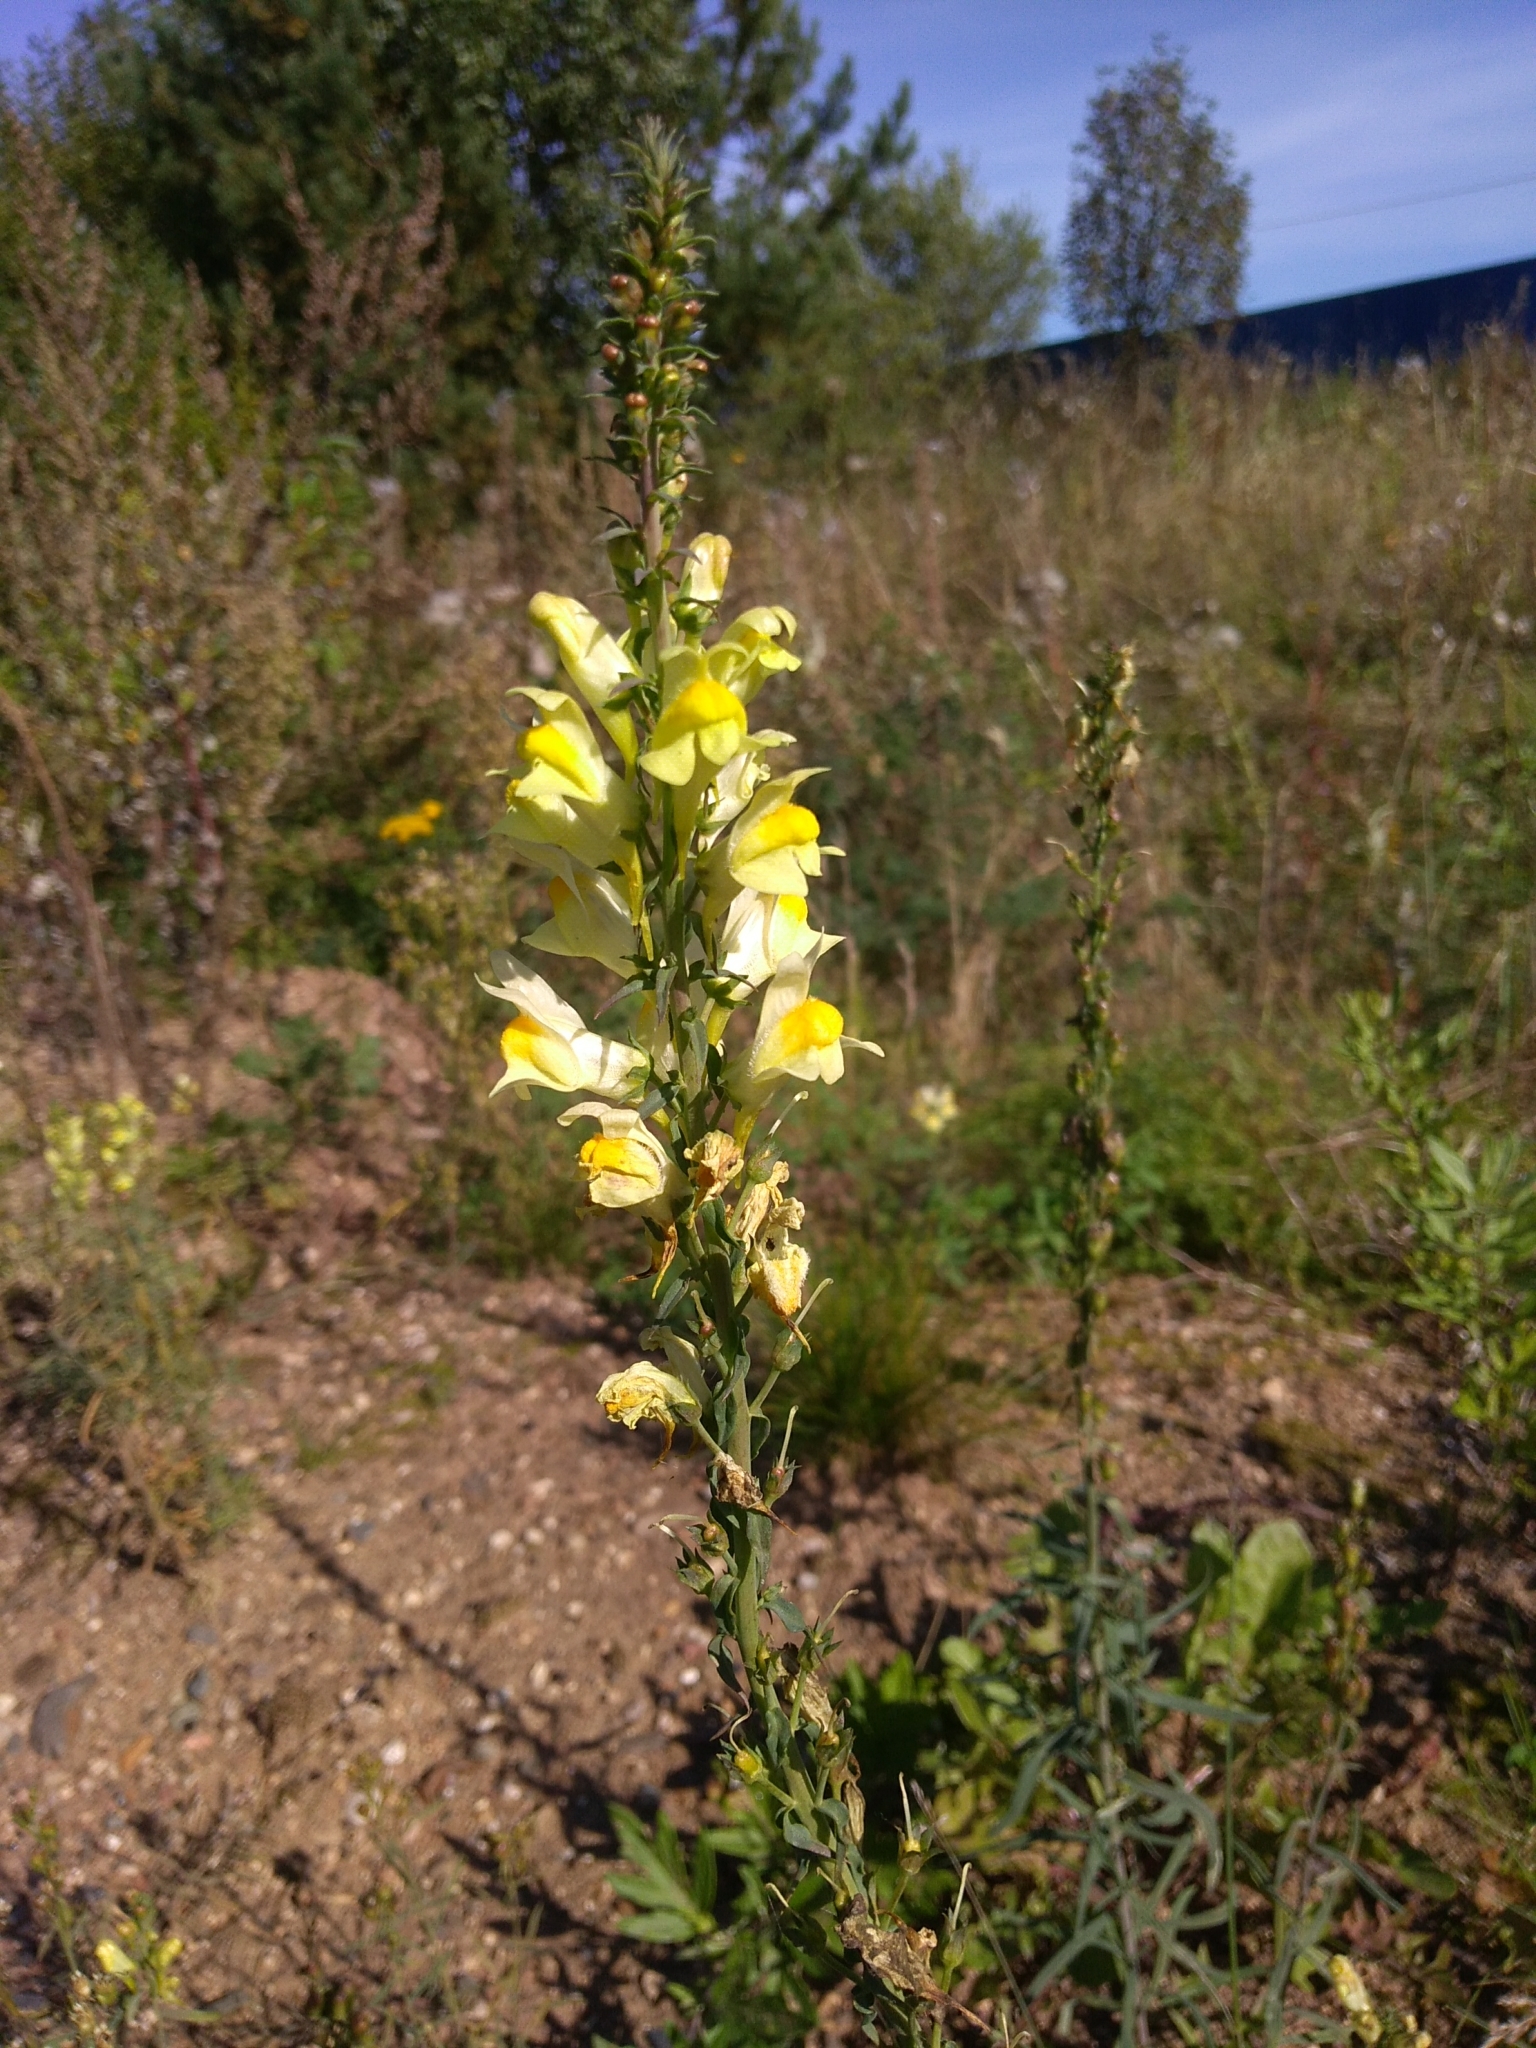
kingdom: Plantae
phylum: Tracheophyta
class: Magnoliopsida
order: Lamiales
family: Plantaginaceae
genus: Linaria
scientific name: Linaria vulgaris
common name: Butter and eggs
